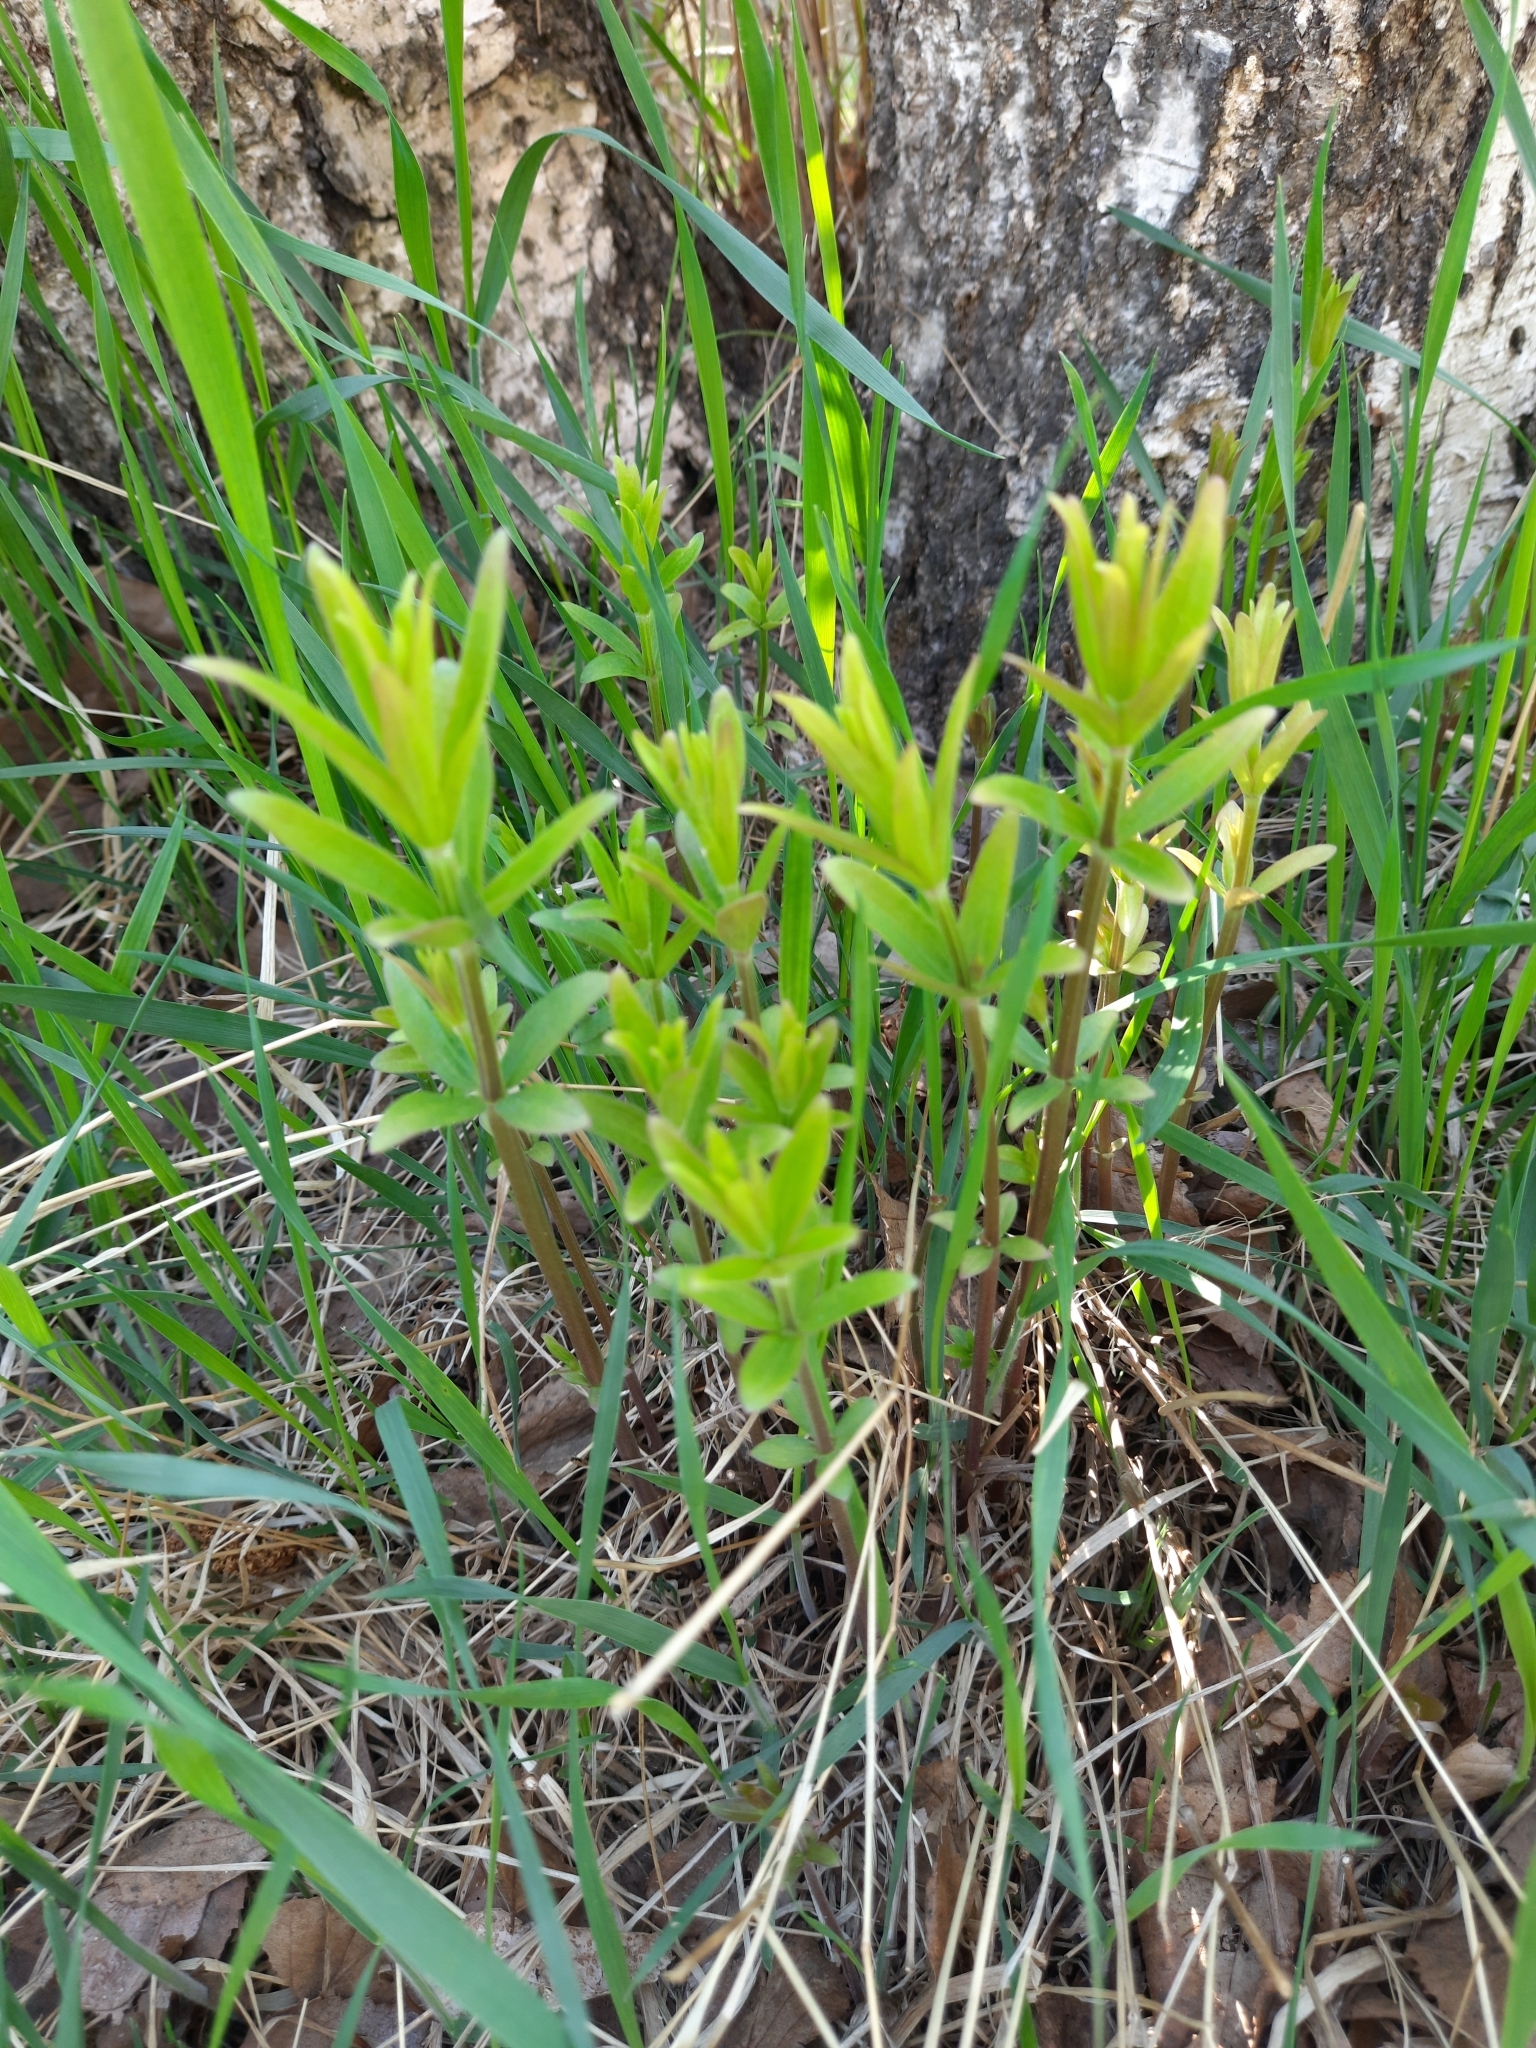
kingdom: Plantae
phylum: Tracheophyta
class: Magnoliopsida
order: Gentianales
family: Rubiaceae
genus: Galium
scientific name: Galium boreale
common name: Northern bedstraw
